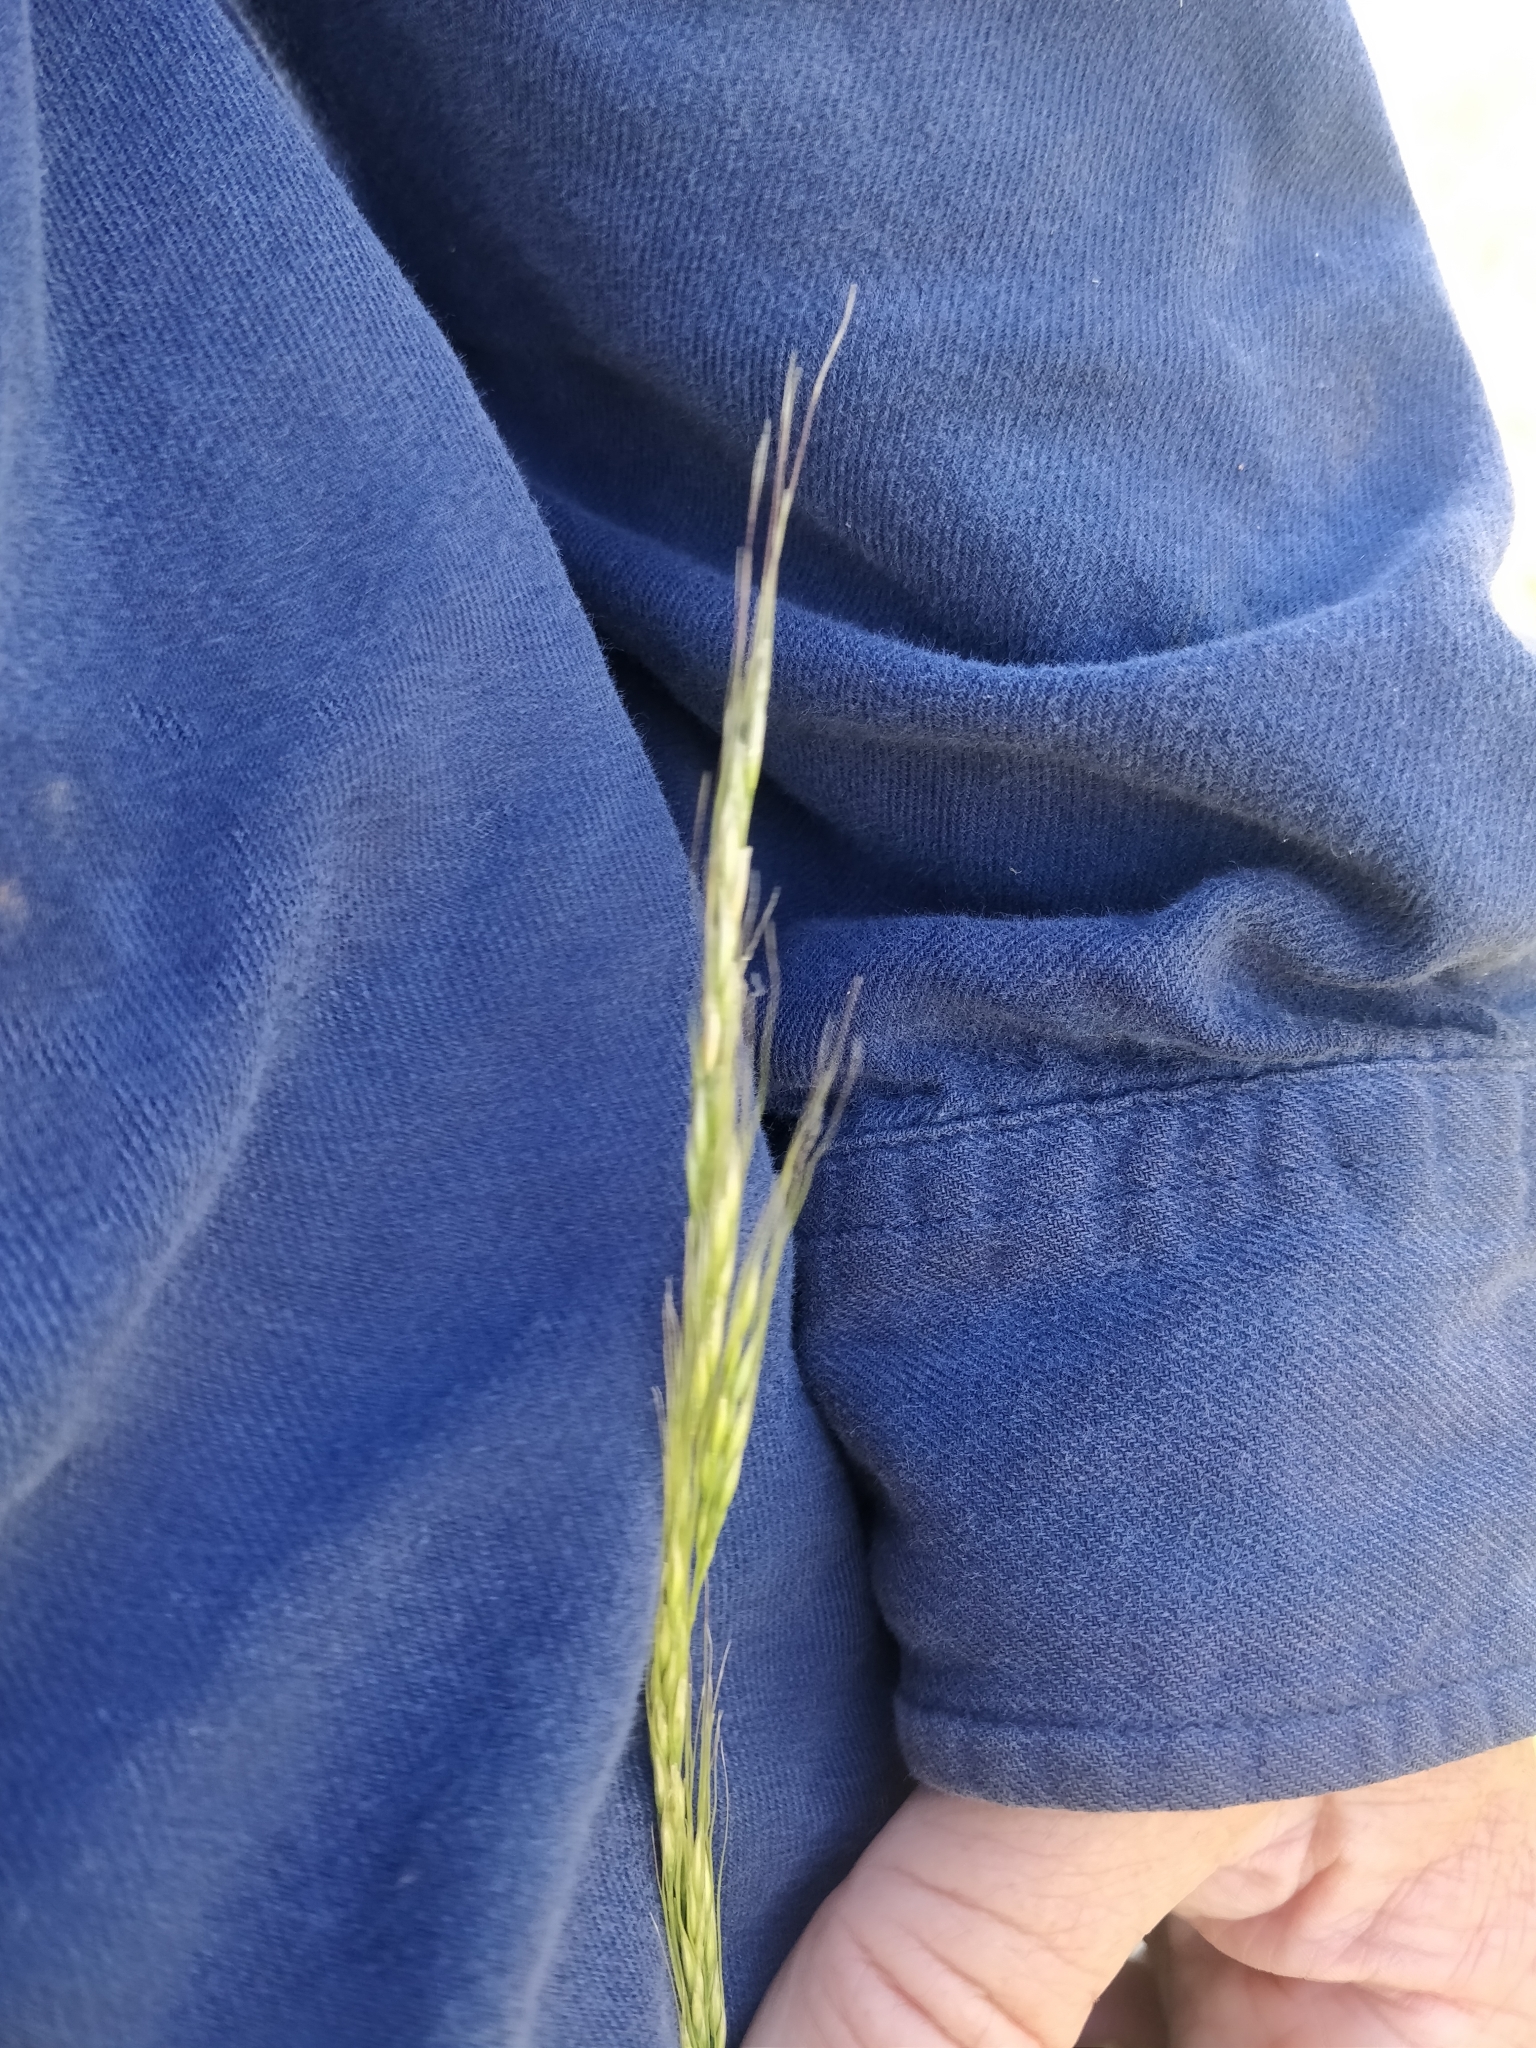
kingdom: Plantae
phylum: Tracheophyta
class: Liliopsida
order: Poales
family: Poaceae
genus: Nassella
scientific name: Nassella viridula
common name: Green needlegrass
